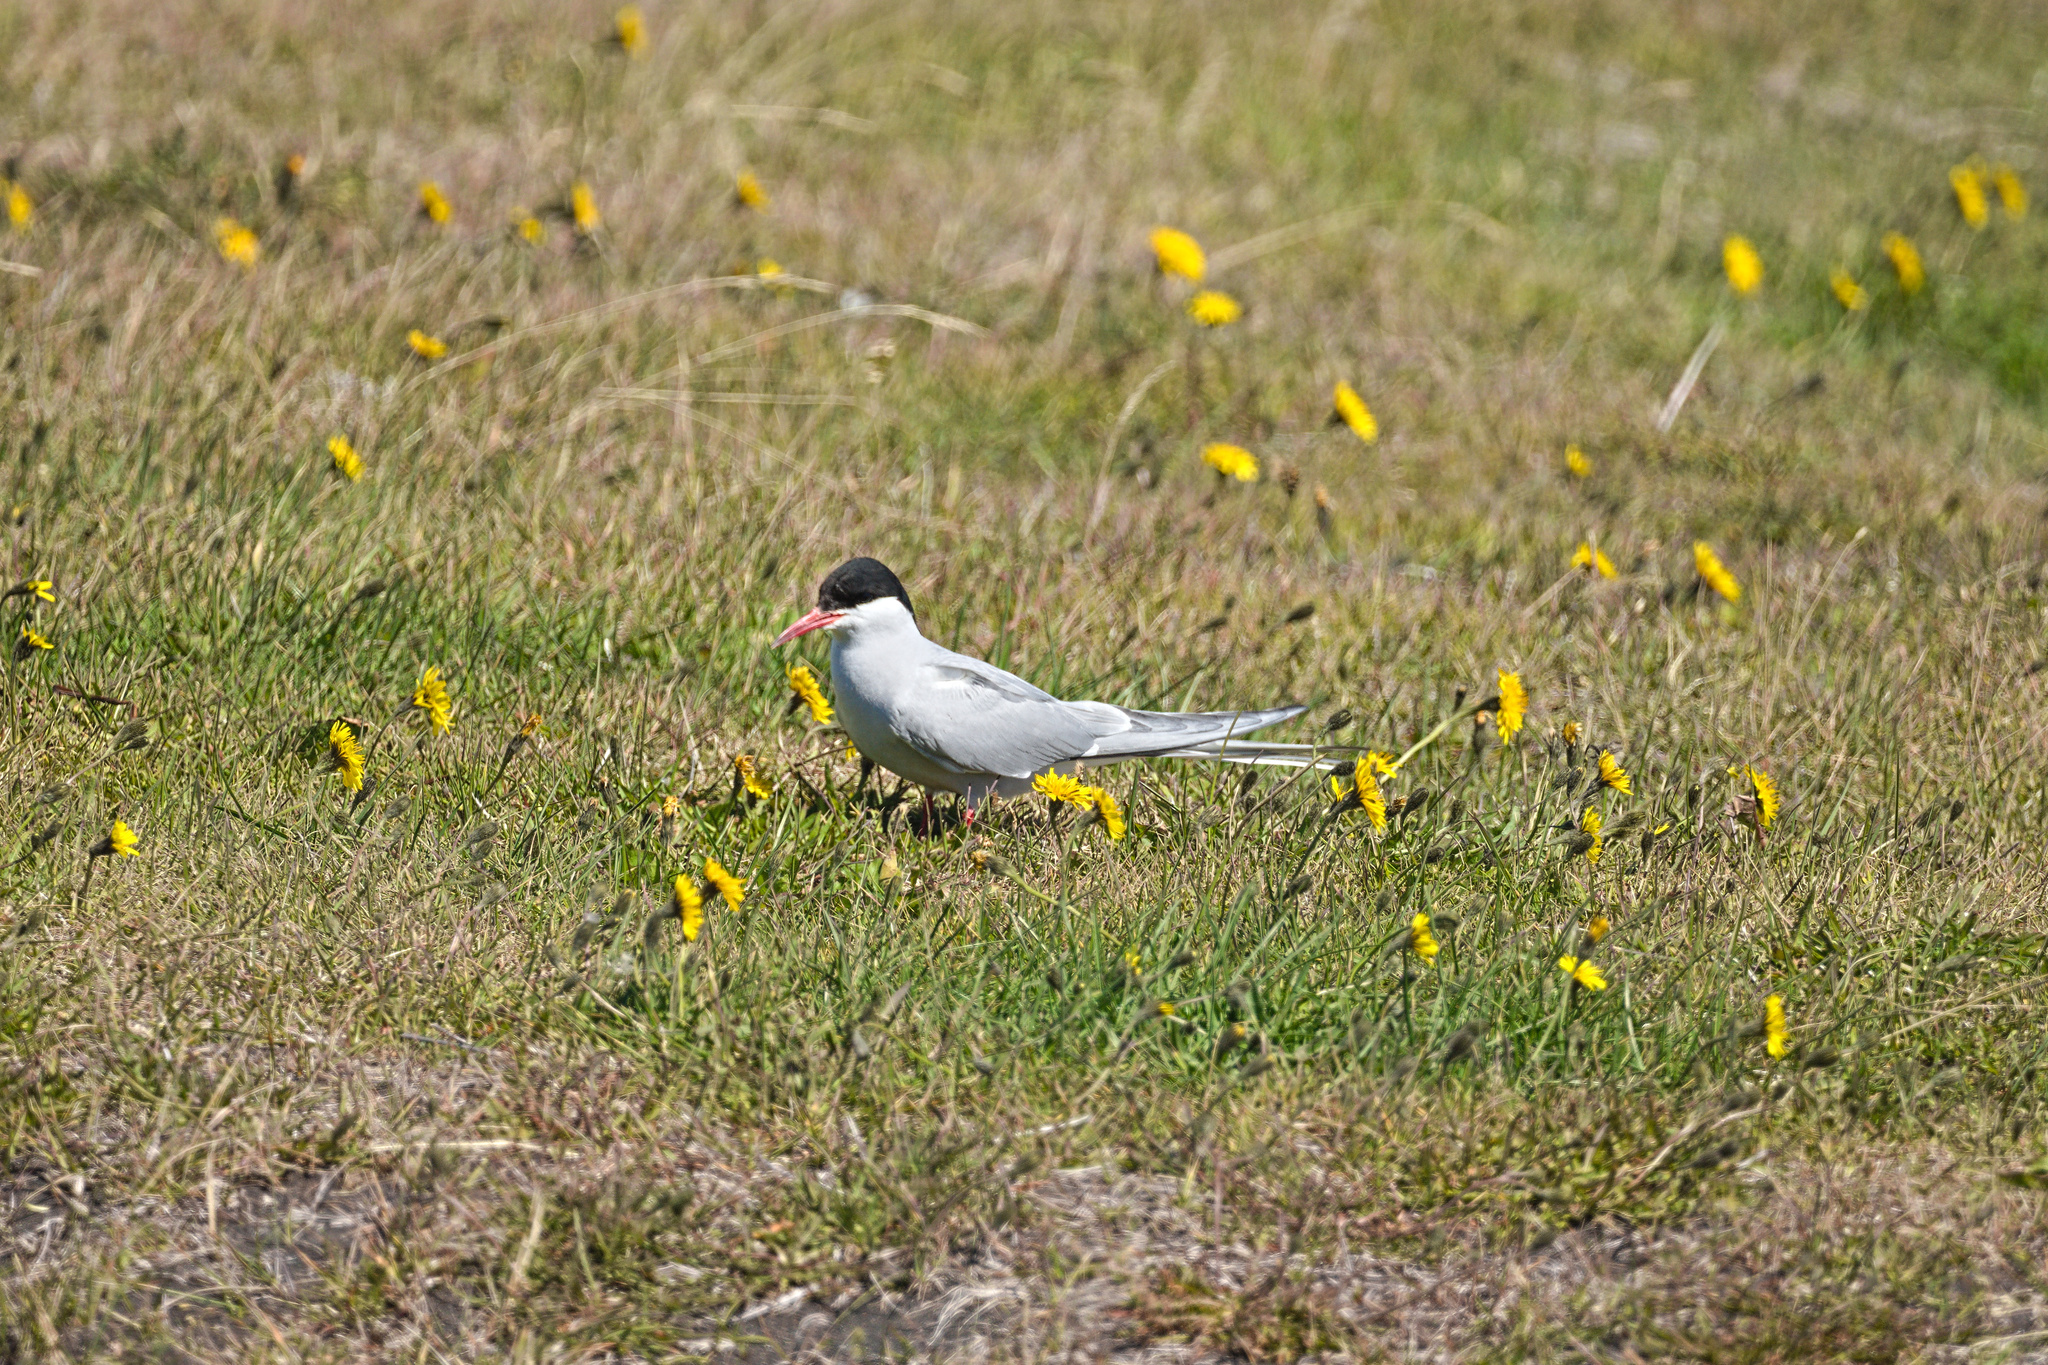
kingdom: Animalia
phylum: Chordata
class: Aves
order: Charadriiformes
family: Laridae
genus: Sterna
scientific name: Sterna paradisaea
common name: Arctic tern
